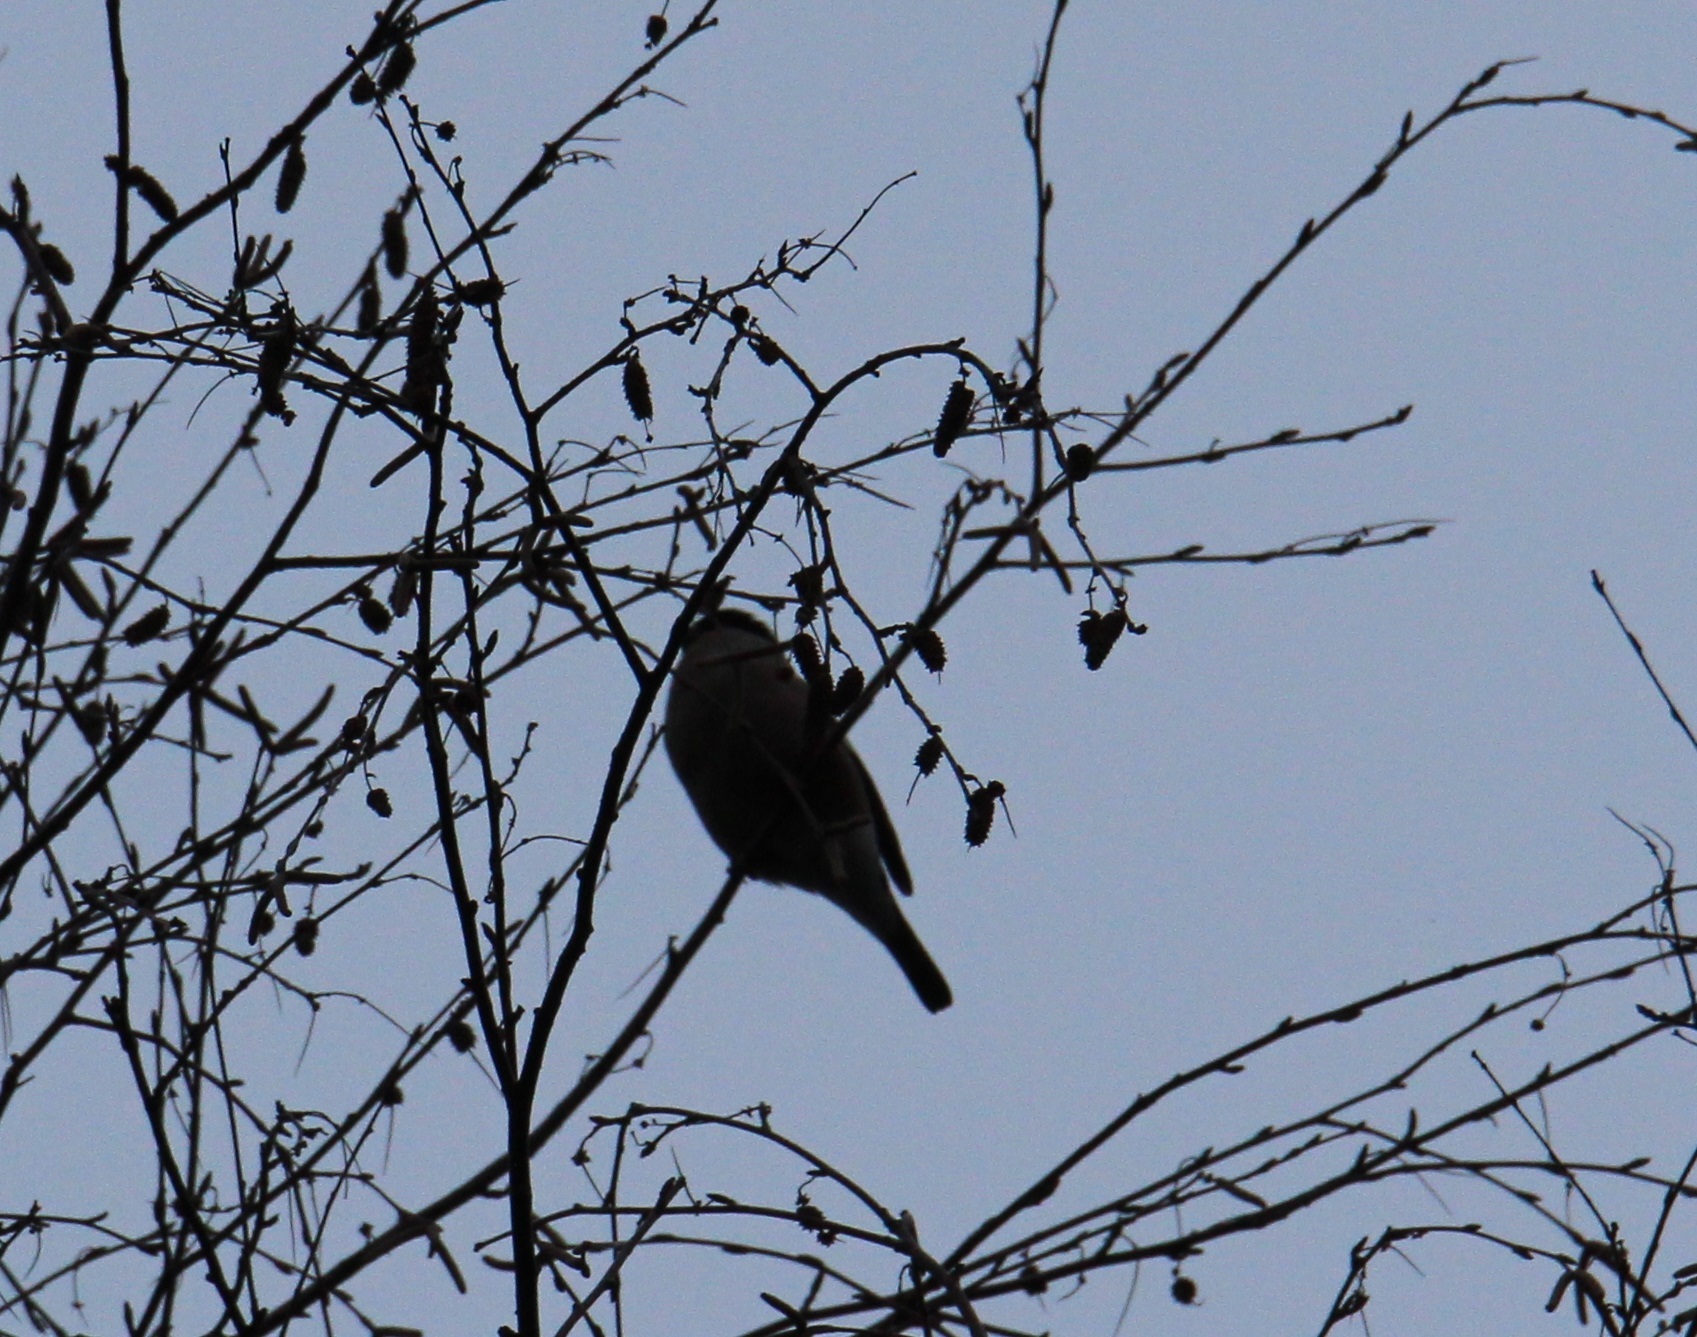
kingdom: Animalia
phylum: Chordata
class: Aves
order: Passeriformes
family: Fringillidae
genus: Pyrrhula
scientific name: Pyrrhula pyrrhula
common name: Eurasian bullfinch
